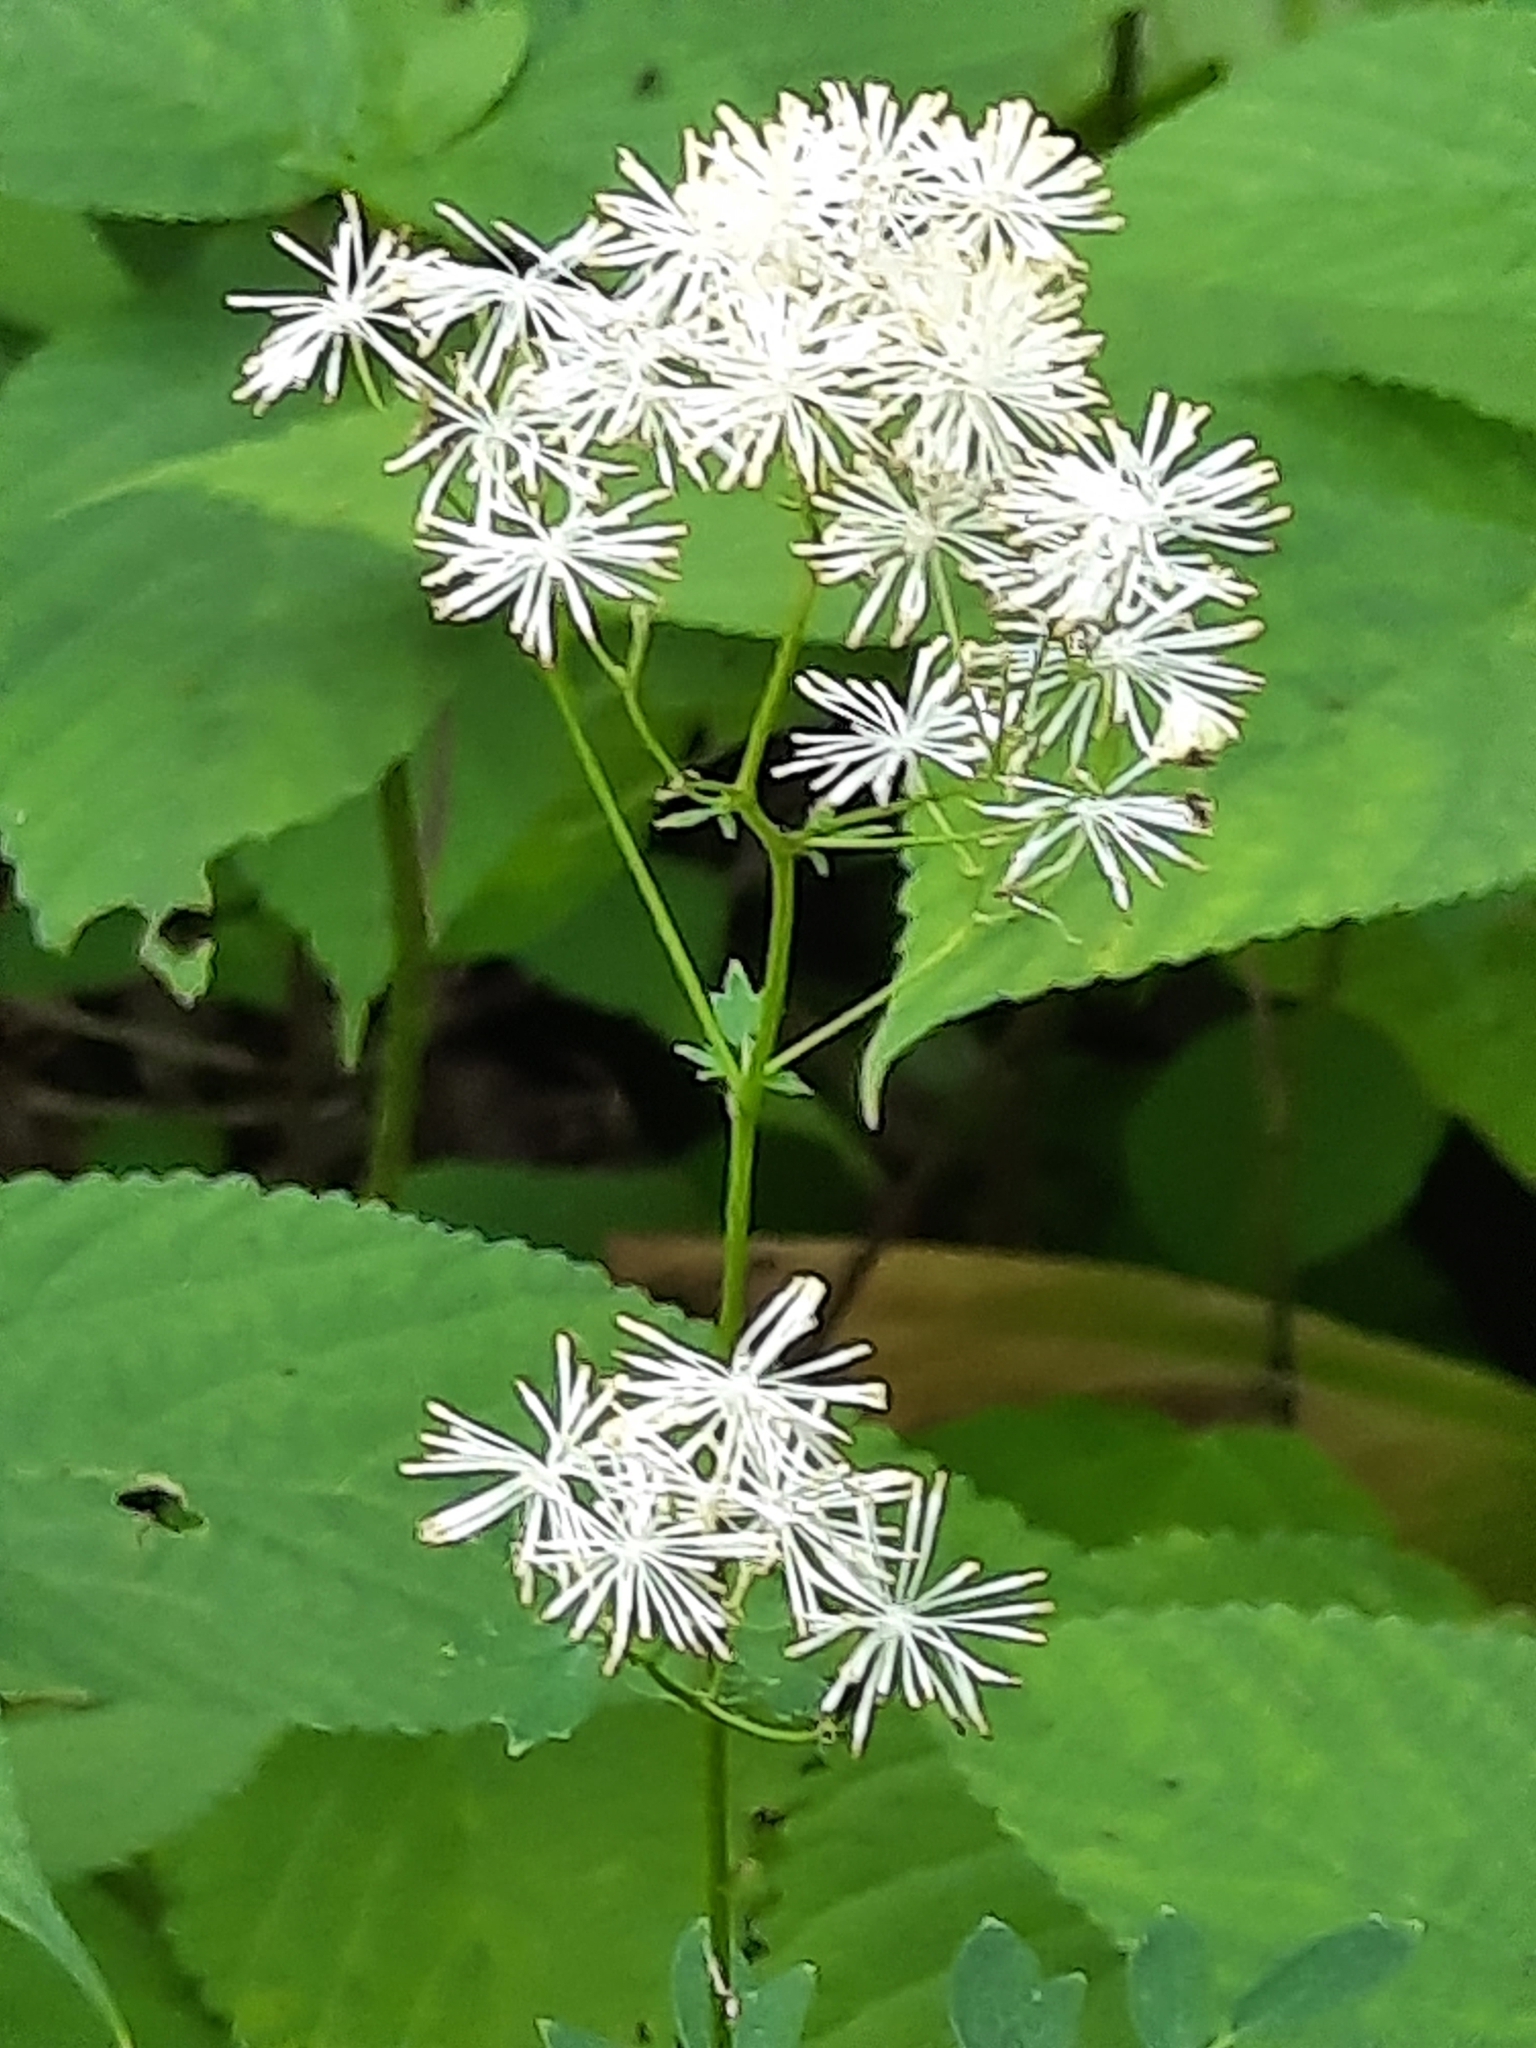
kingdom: Plantae
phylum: Tracheophyta
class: Magnoliopsida
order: Ranunculales
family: Ranunculaceae
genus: Thalictrum
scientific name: Thalictrum pubescens
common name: King-of-the-meadow
